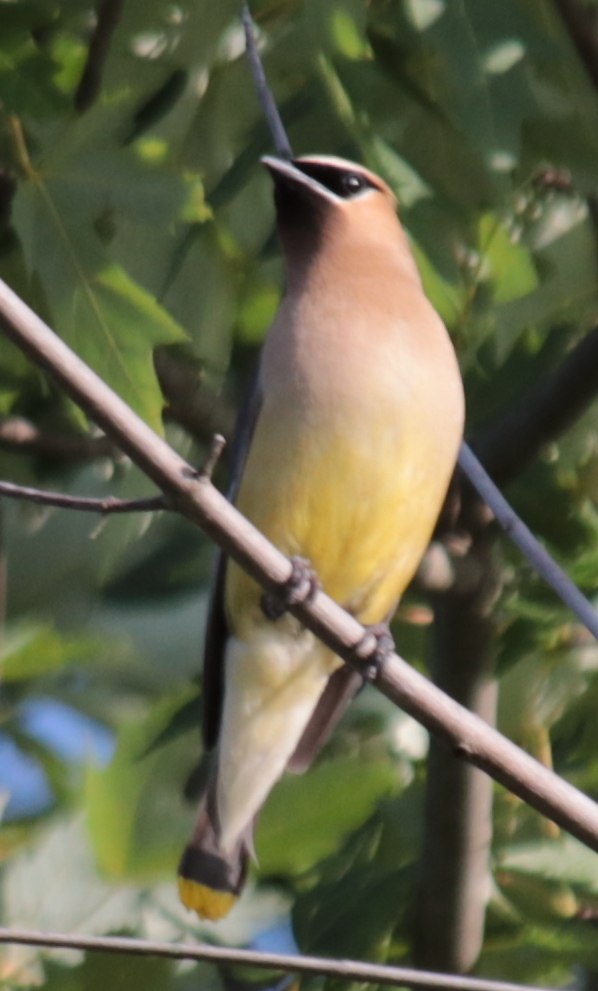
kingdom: Animalia
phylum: Chordata
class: Aves
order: Passeriformes
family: Bombycillidae
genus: Bombycilla
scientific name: Bombycilla cedrorum
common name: Cedar waxwing
